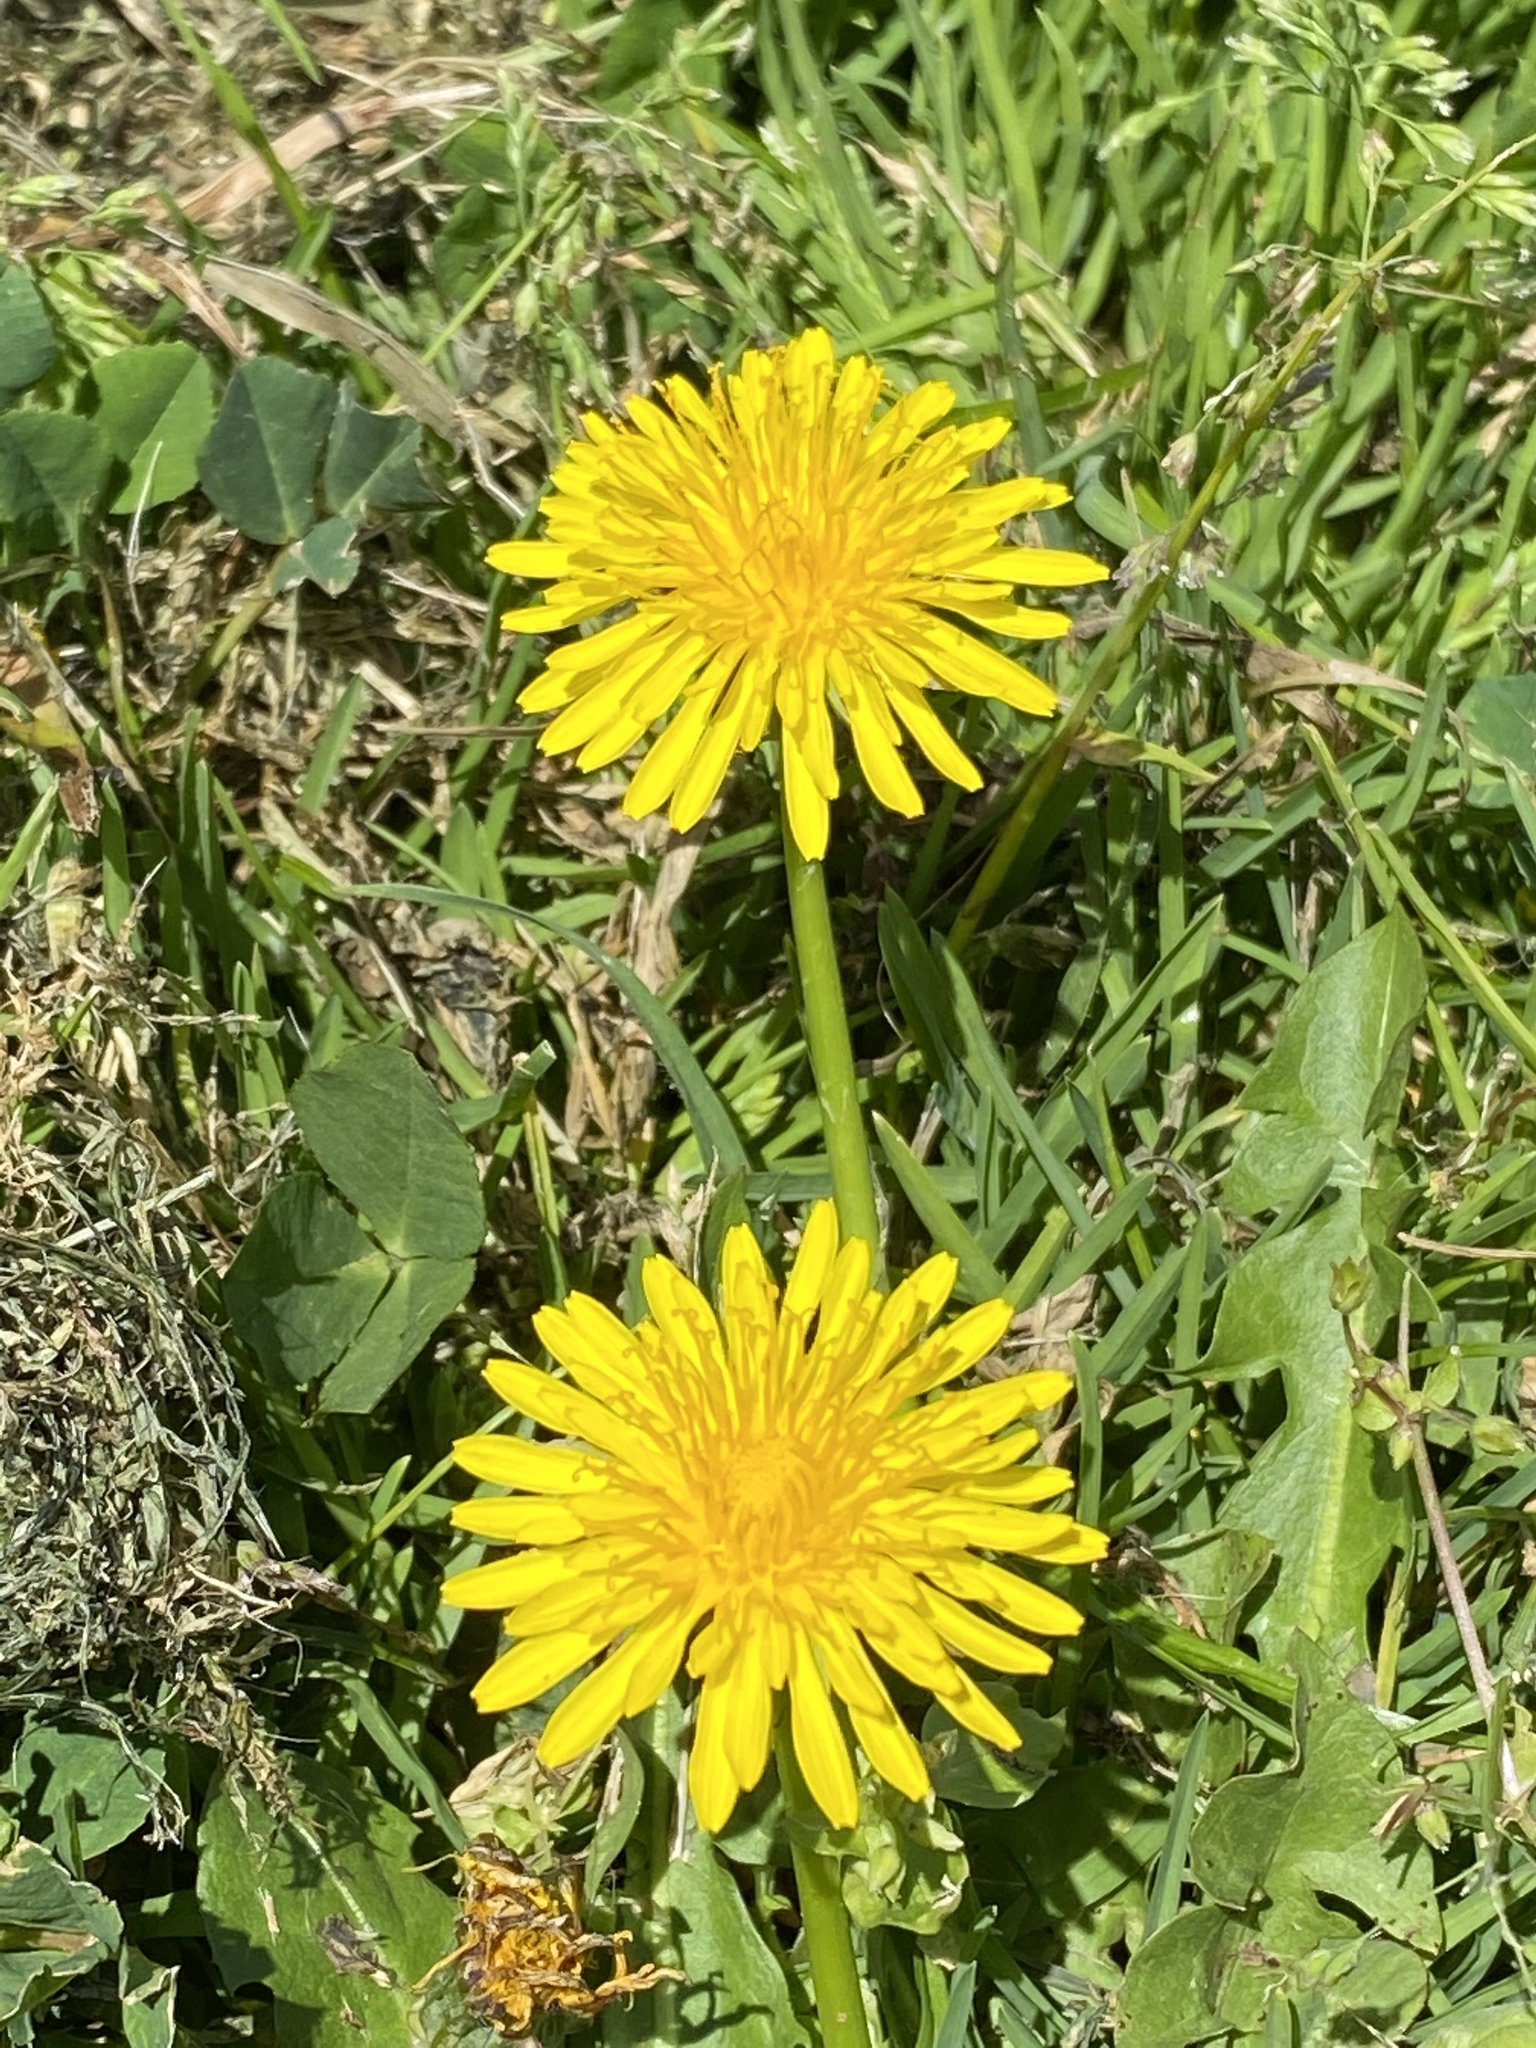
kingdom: Plantae
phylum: Tracheophyta
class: Magnoliopsida
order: Asterales
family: Asteraceae
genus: Taraxacum
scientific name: Taraxacum officinale
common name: Common dandelion
